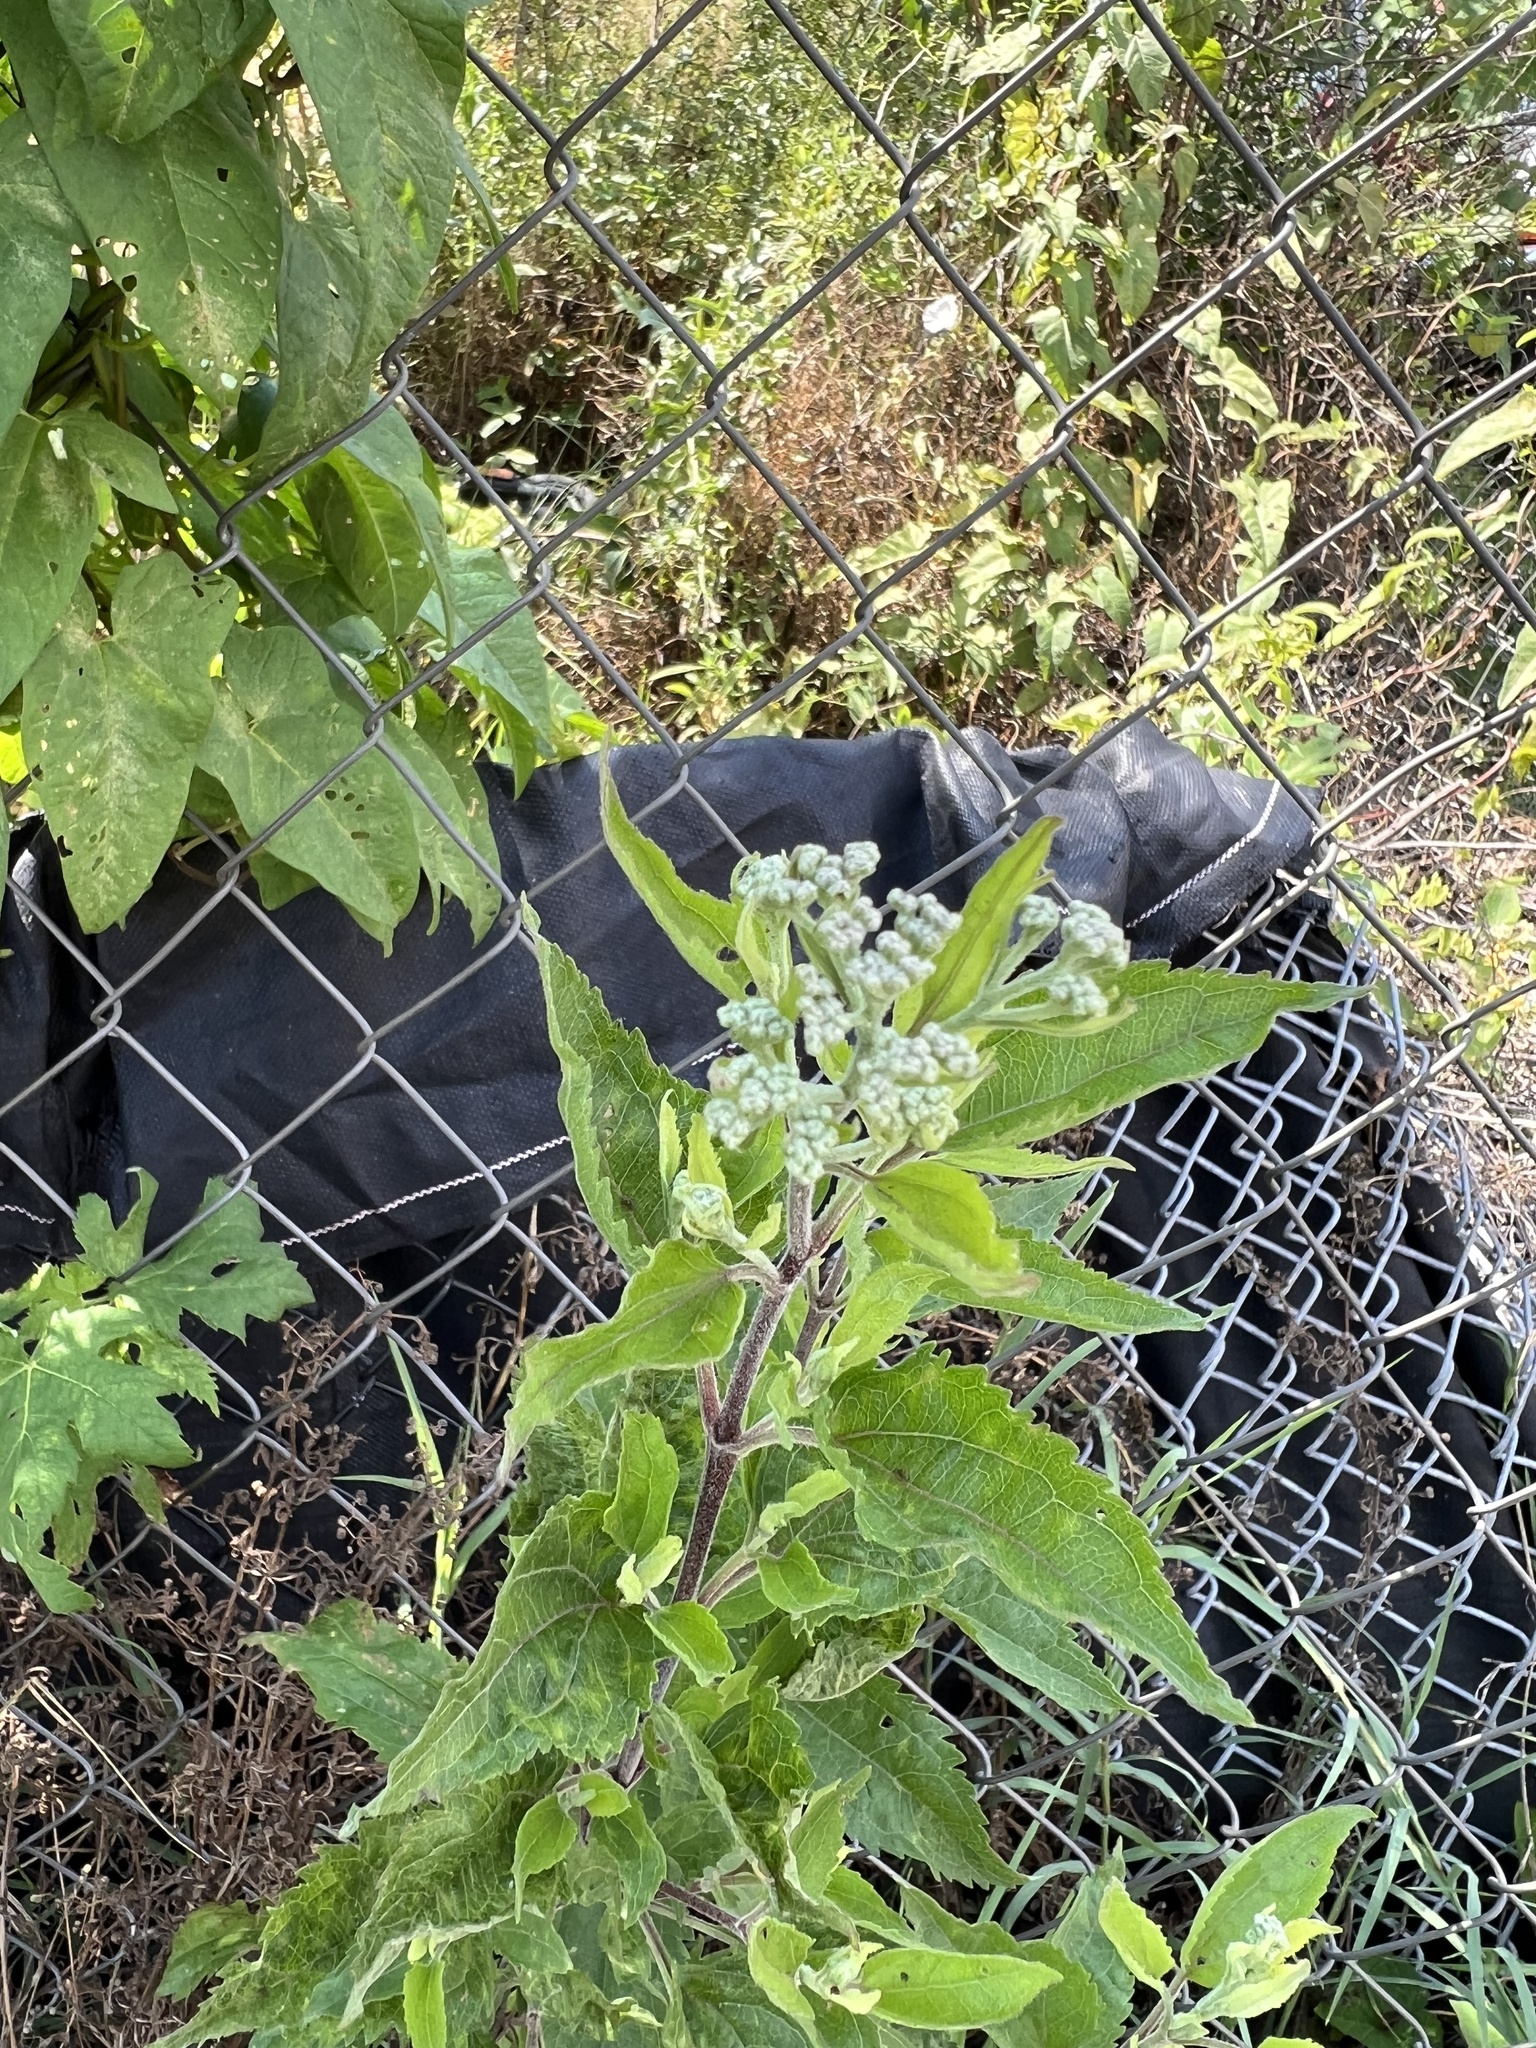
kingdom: Plantae
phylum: Tracheophyta
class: Magnoliopsida
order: Asterales
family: Asteraceae
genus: Eupatorium
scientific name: Eupatorium serotinum
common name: Late boneset
